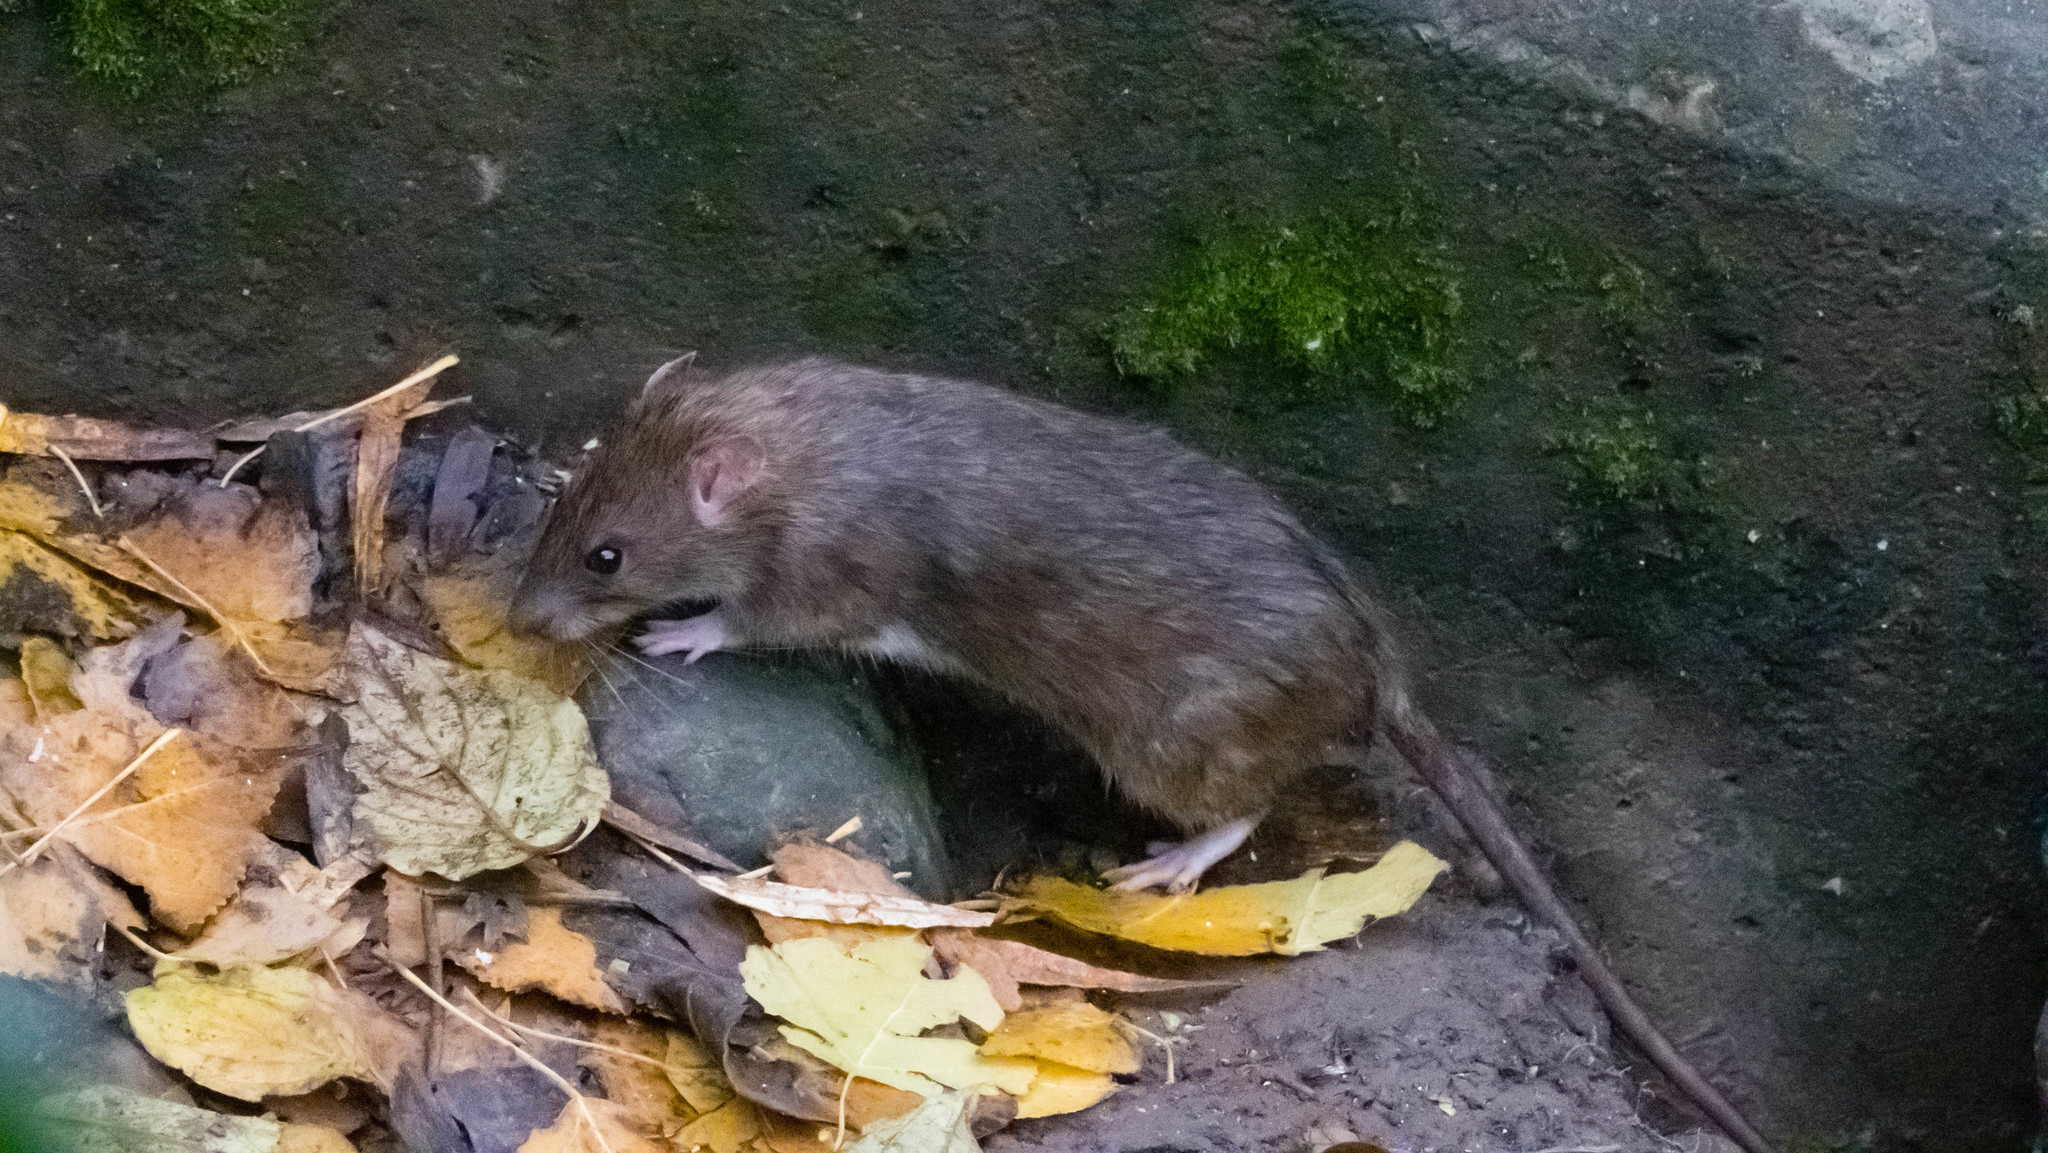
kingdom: Animalia
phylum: Chordata
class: Mammalia
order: Rodentia
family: Muridae
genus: Rattus
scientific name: Rattus norvegicus
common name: Brown rat
